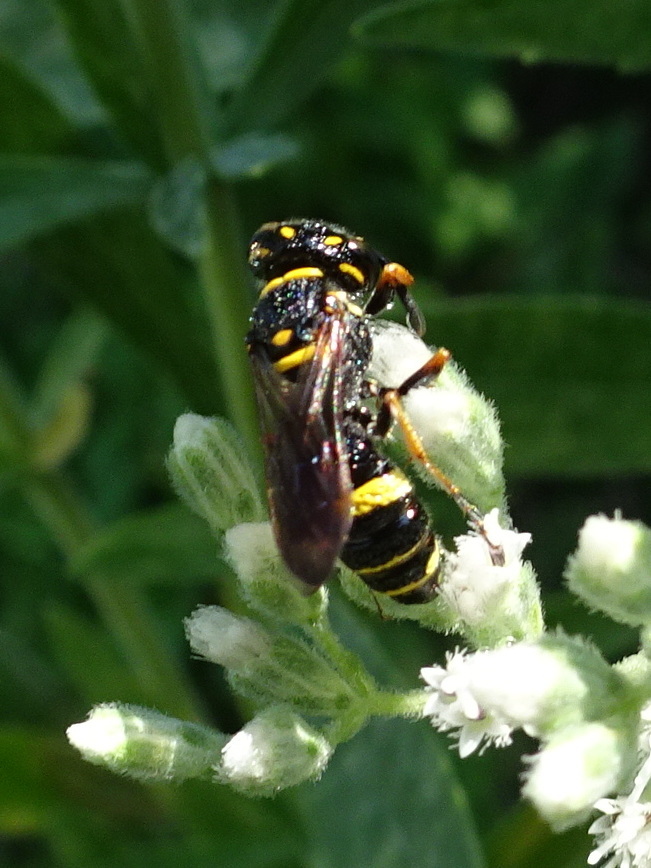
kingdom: Animalia
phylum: Arthropoda
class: Insecta
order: Hymenoptera
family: Crabronidae
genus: Philanthus
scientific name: Philanthus gibbosus
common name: Humped beewolf
